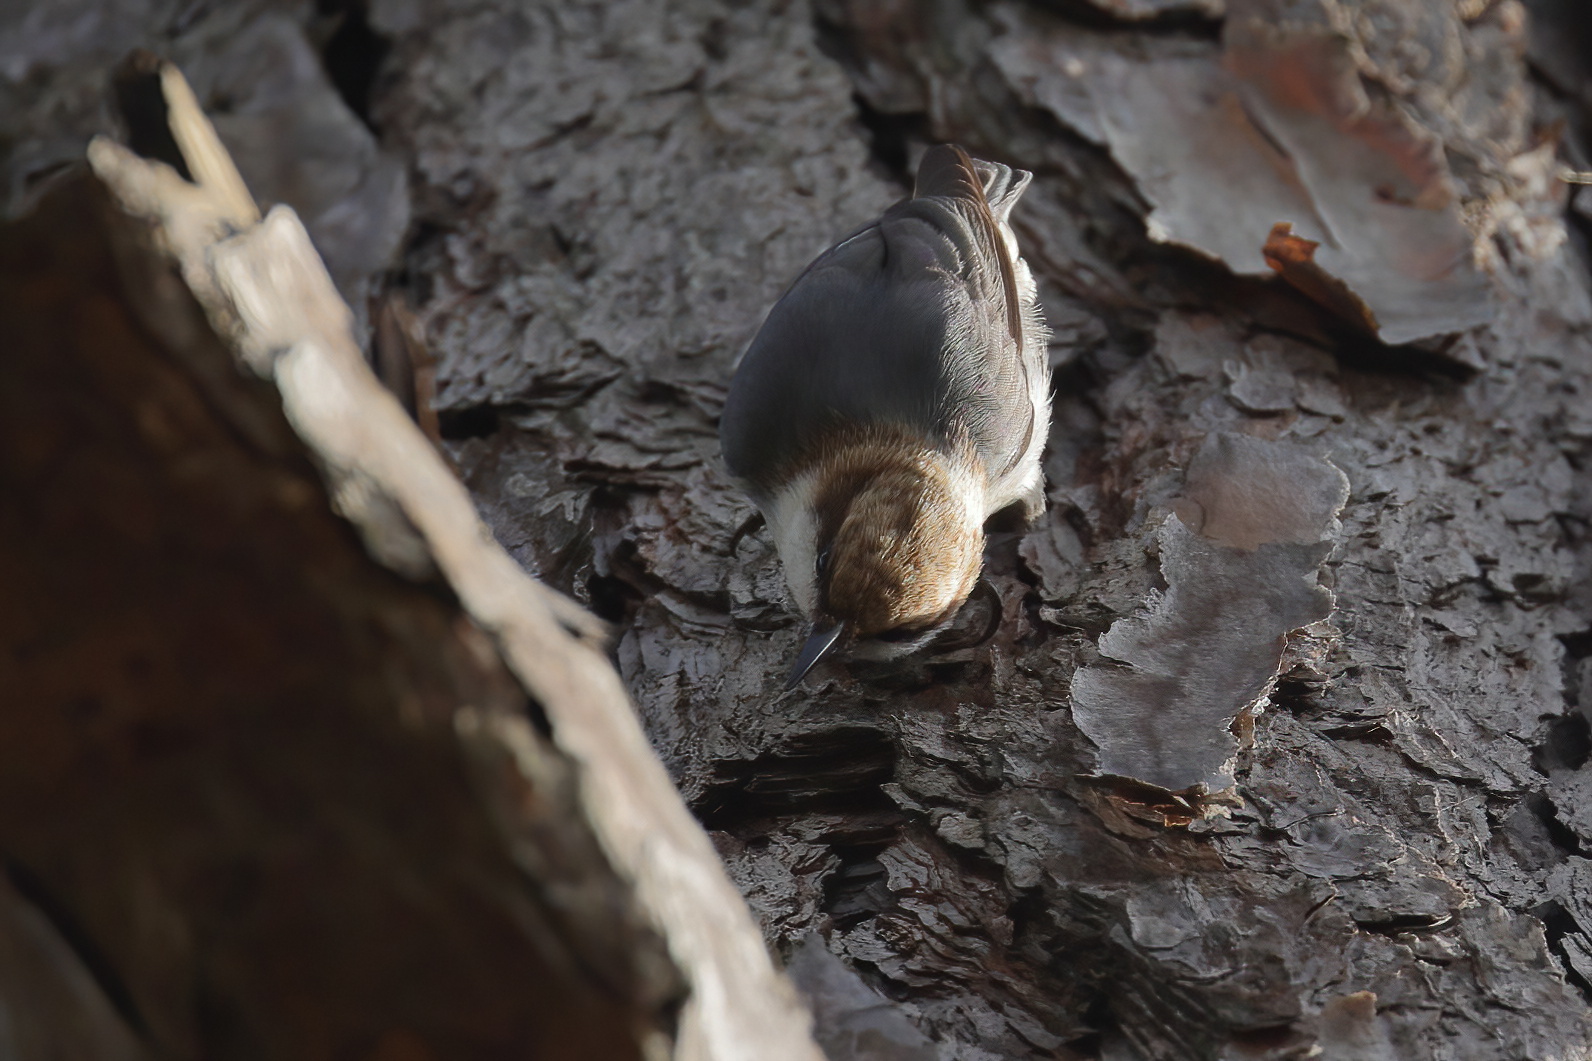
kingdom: Animalia
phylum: Chordata
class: Aves
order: Passeriformes
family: Sittidae
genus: Sitta
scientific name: Sitta pusilla
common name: Brown-headed nuthatch
